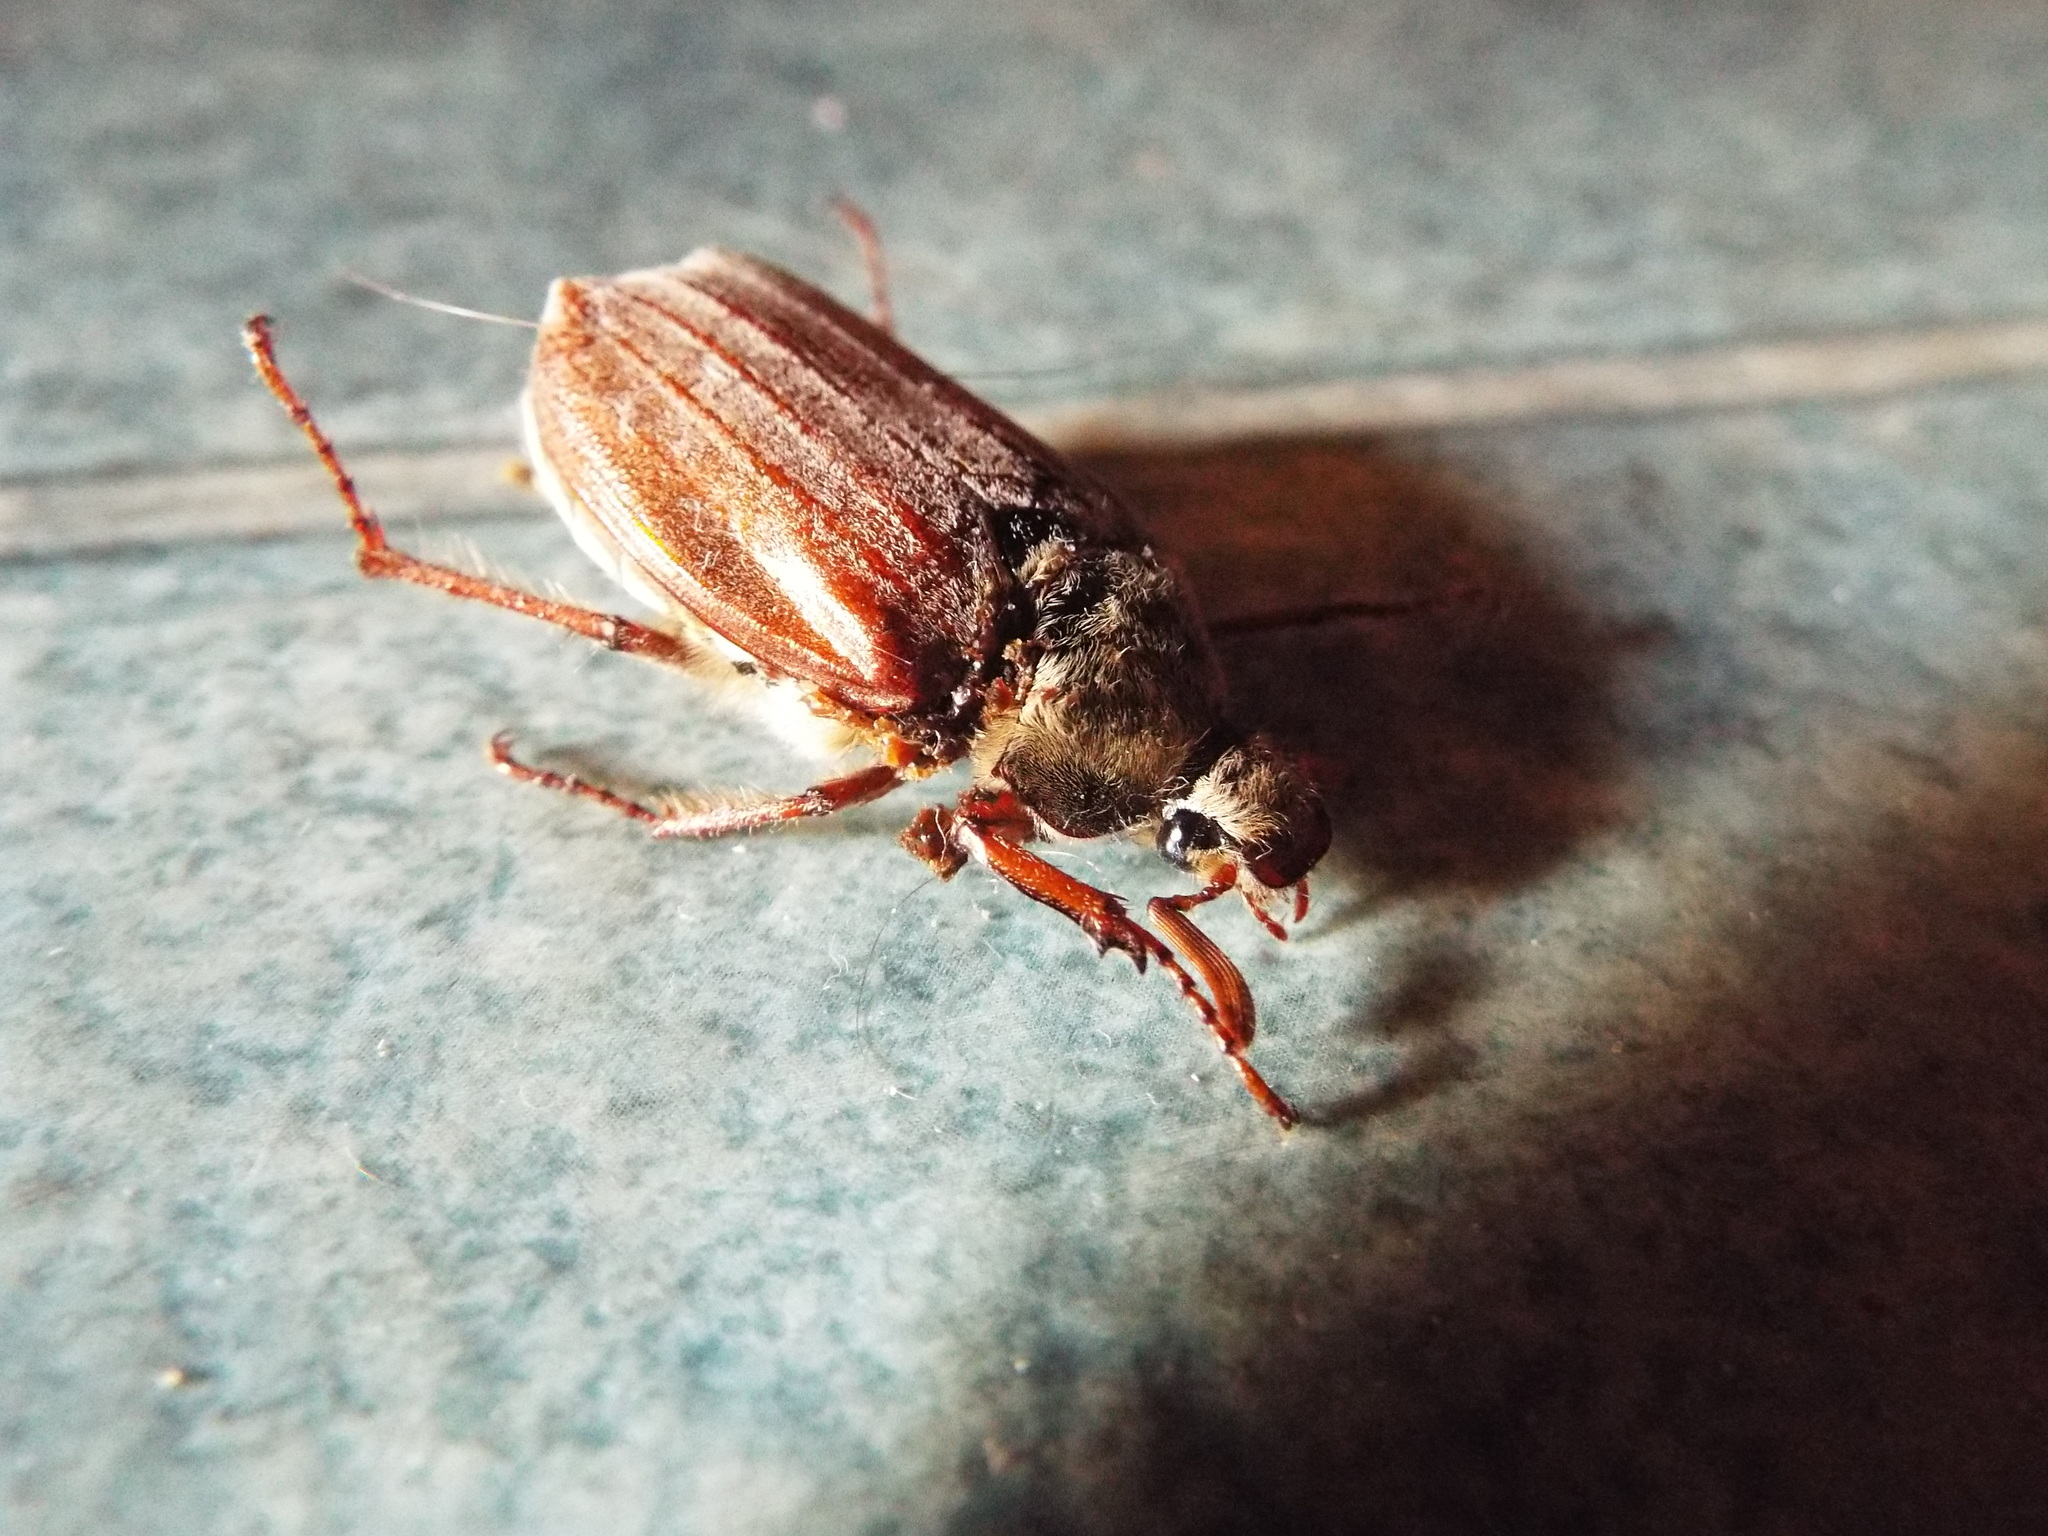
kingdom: Animalia
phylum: Arthropoda
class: Insecta
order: Coleoptera
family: Scarabaeidae
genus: Melolontha
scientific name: Melolontha melolontha
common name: Cockchafer maybeetle
